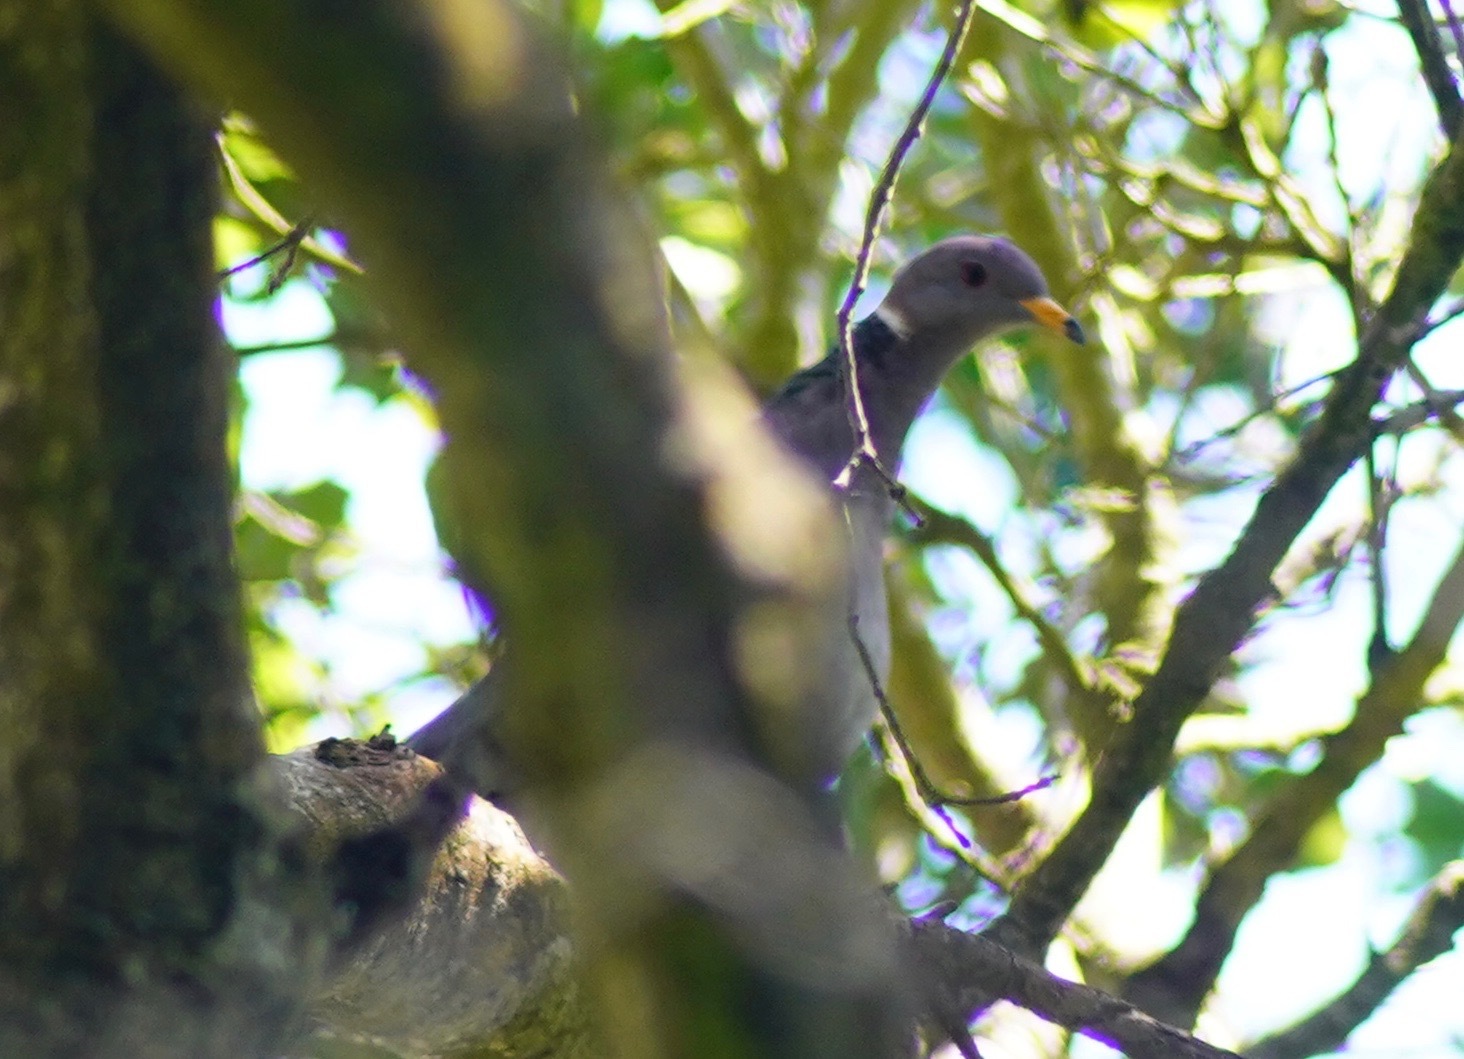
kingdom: Animalia
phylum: Chordata
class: Aves
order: Columbiformes
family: Columbidae
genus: Patagioenas
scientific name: Patagioenas fasciata
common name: Band-tailed pigeon
